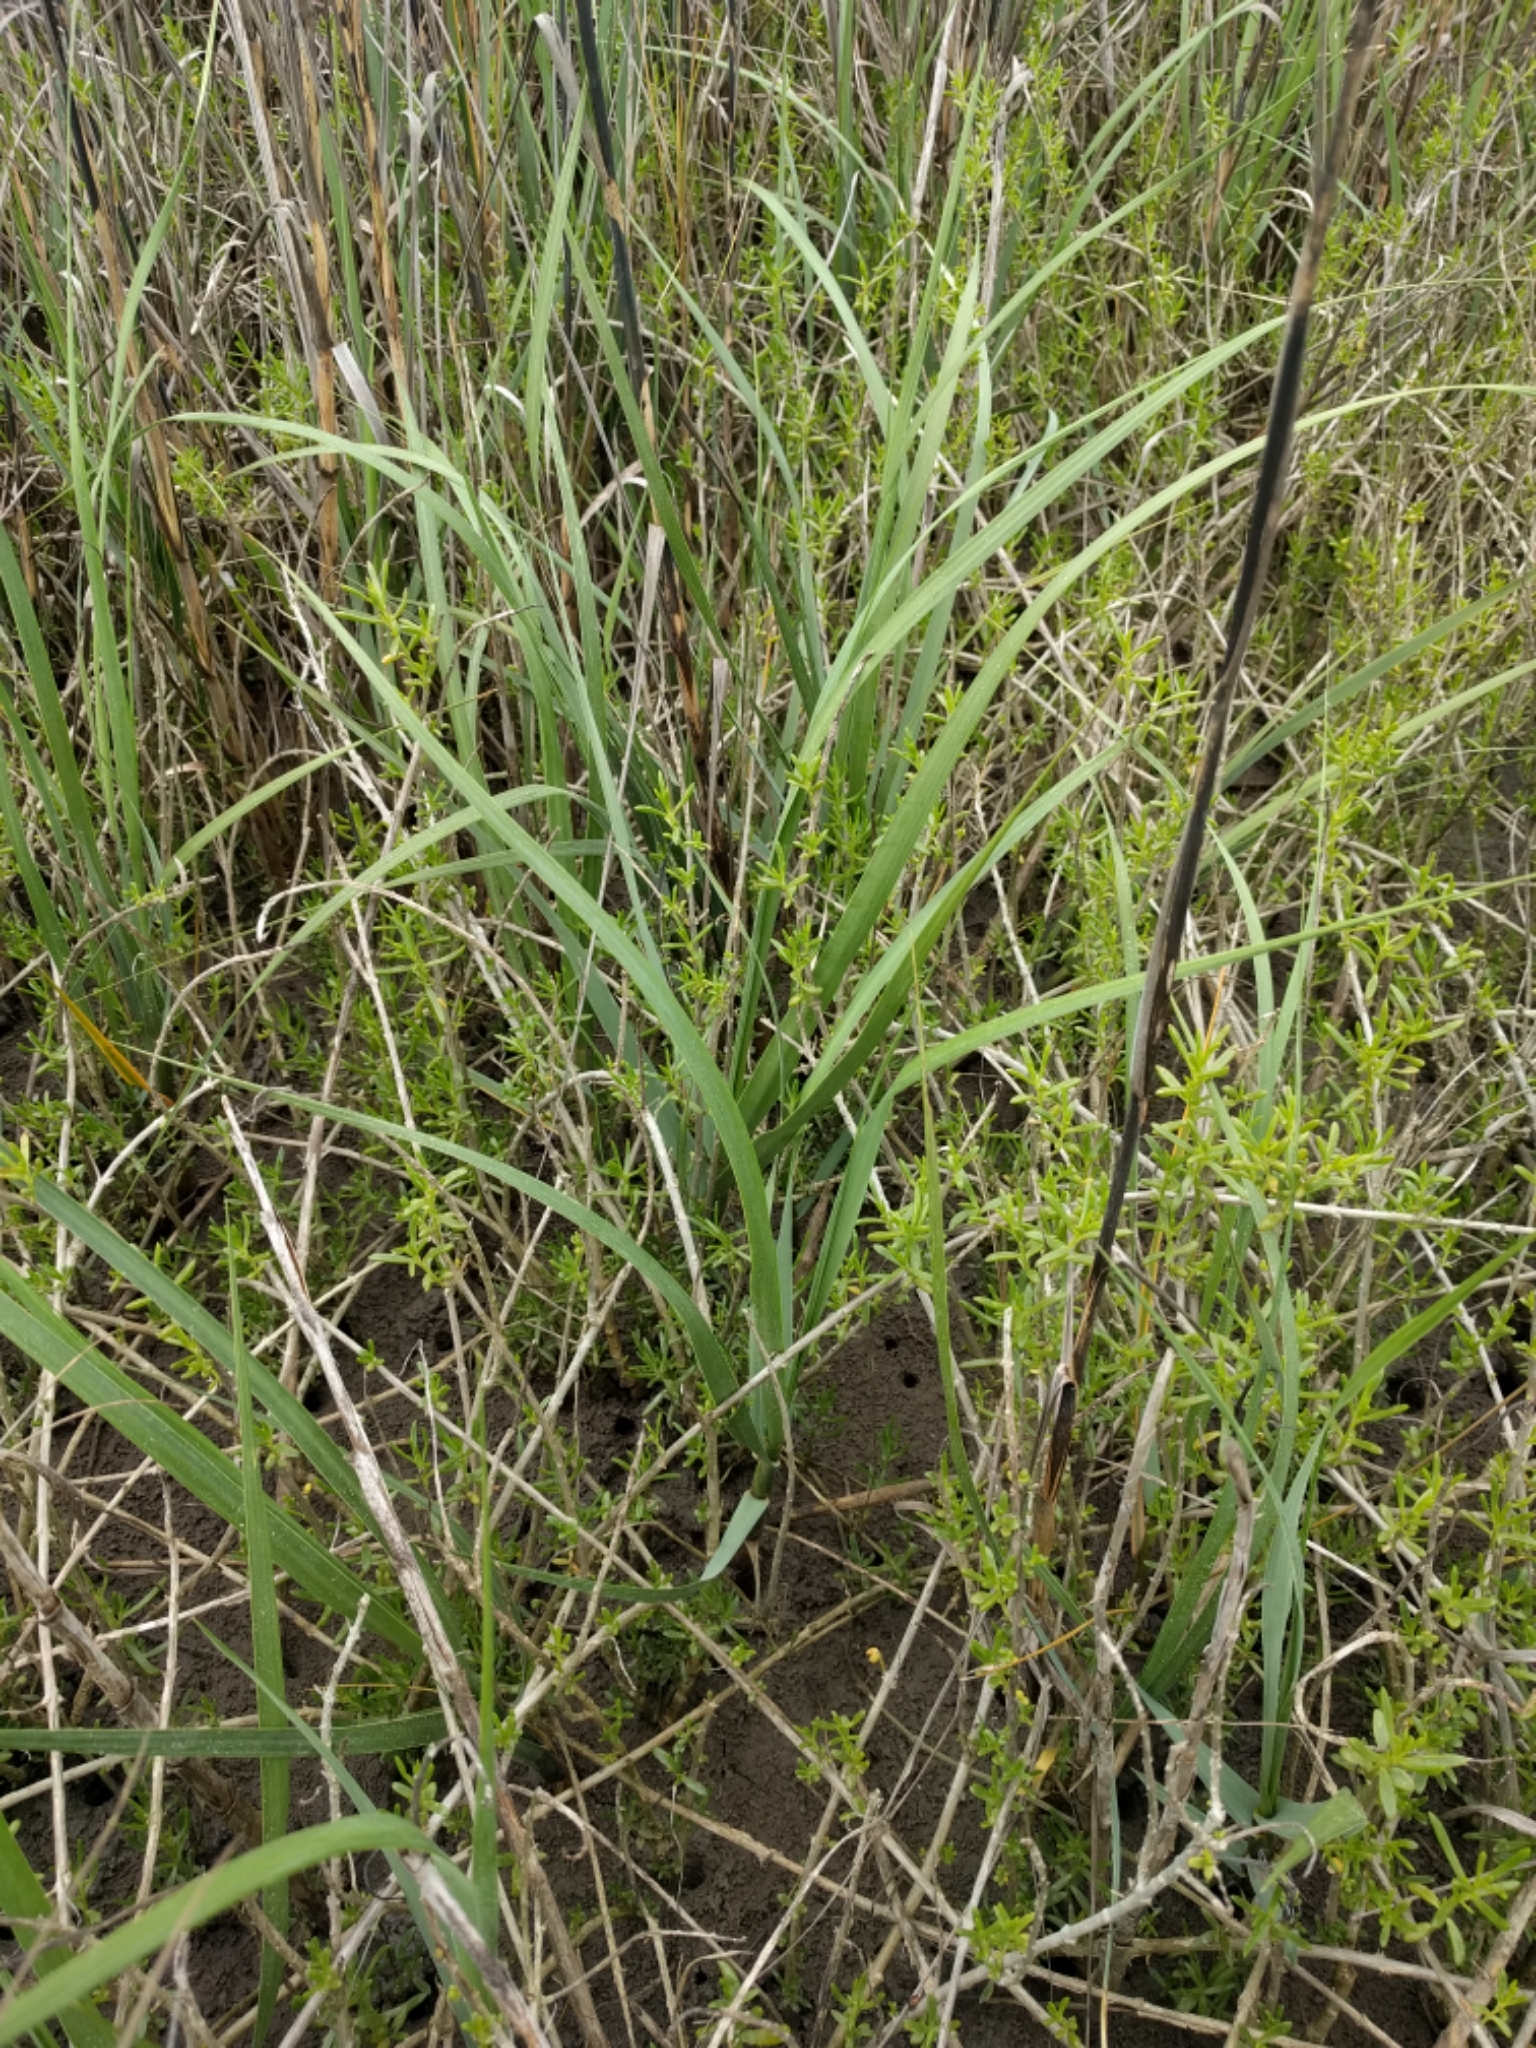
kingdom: Plantae
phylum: Tracheophyta
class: Liliopsida
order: Poales
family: Poaceae
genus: Sporobolus
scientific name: Sporobolus alterniflorus
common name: Atlantic cordgrass
